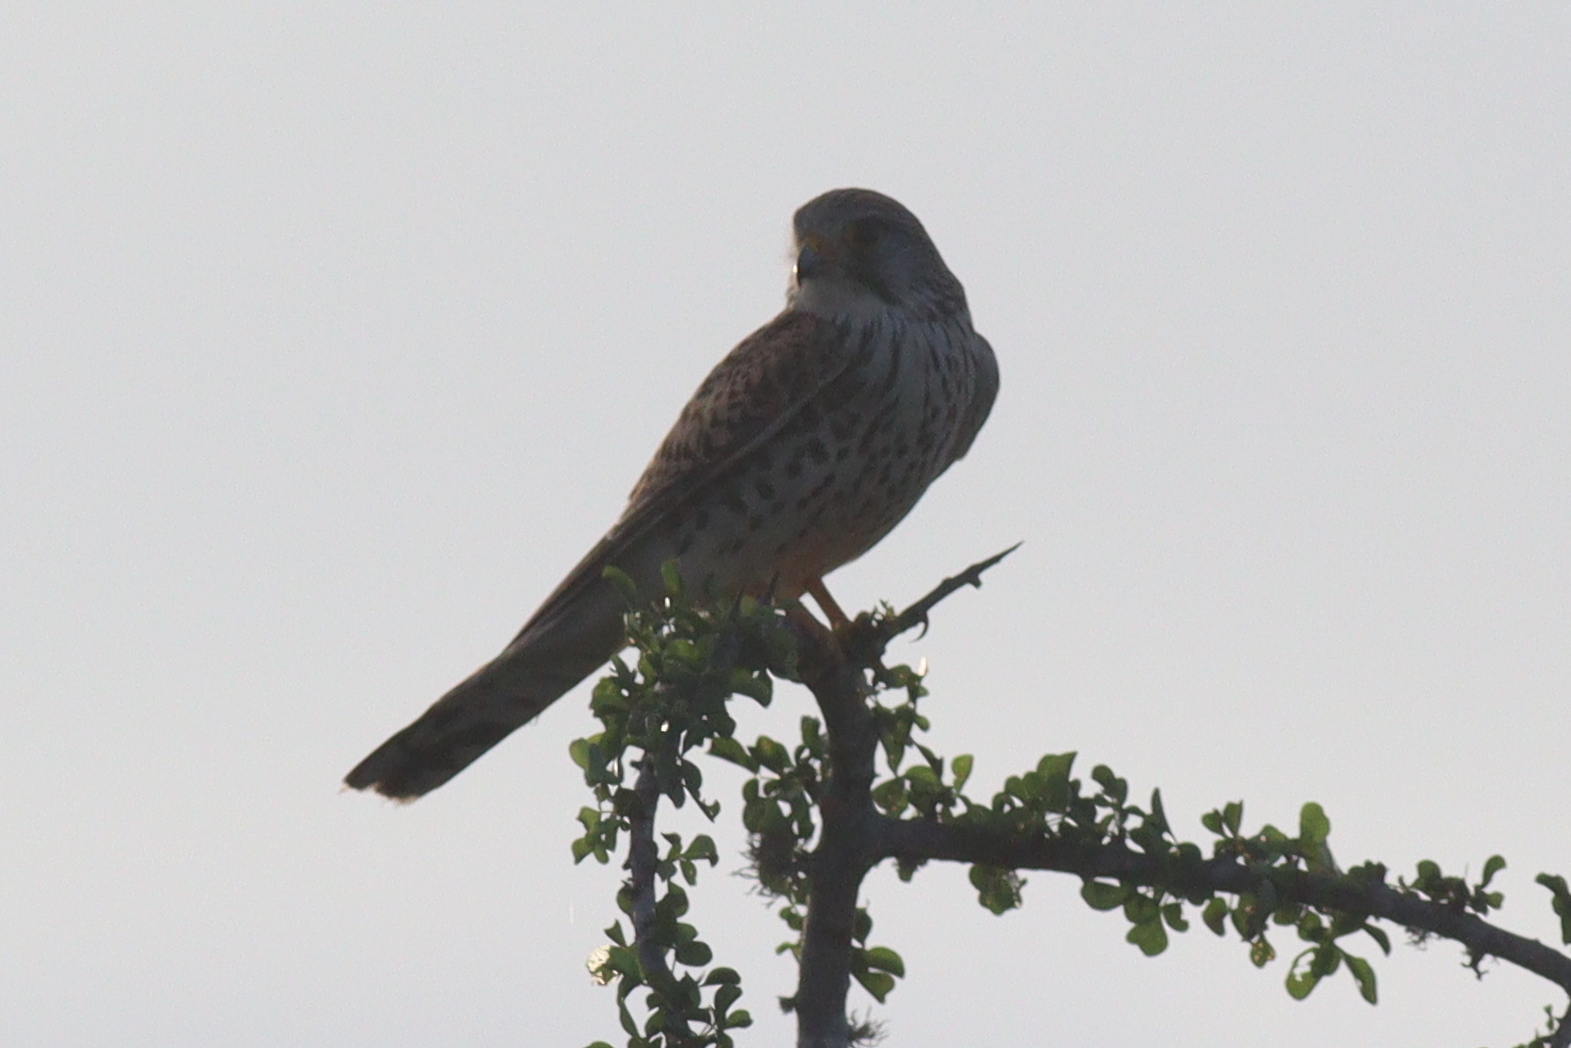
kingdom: Animalia
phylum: Chordata
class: Aves
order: Falconiformes
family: Falconidae
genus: Falco
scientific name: Falco tinnunculus
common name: Common kestrel
